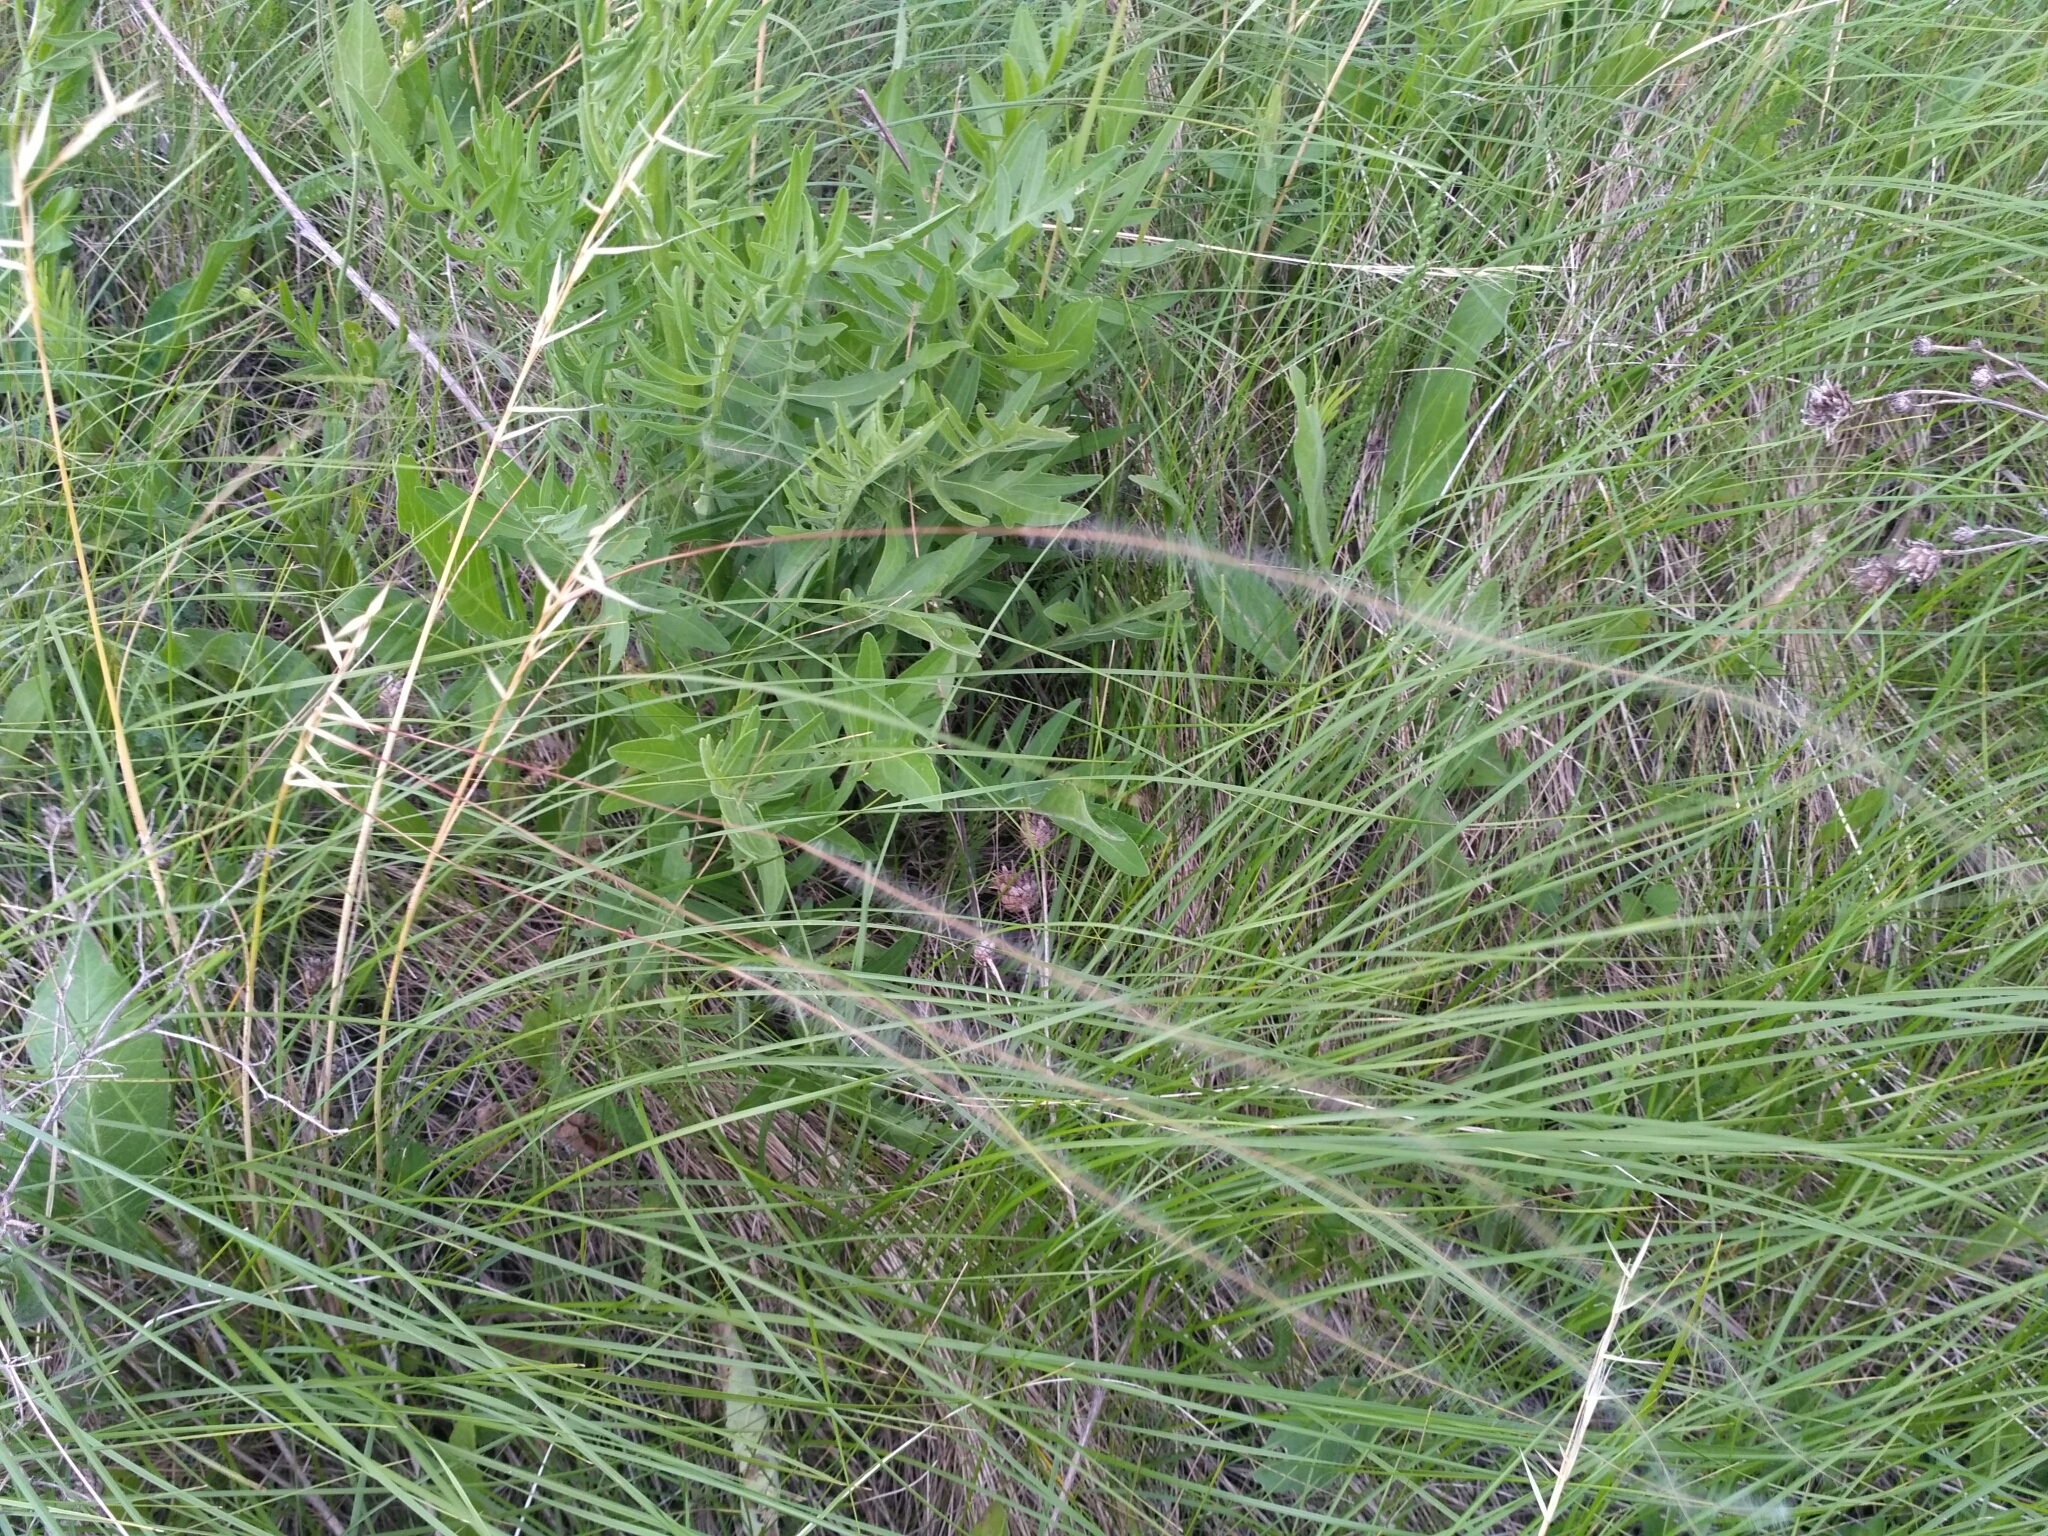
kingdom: Plantae
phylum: Tracheophyta
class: Liliopsida
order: Poales
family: Poaceae
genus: Stipa
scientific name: Stipa pennata
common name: European feather grass
